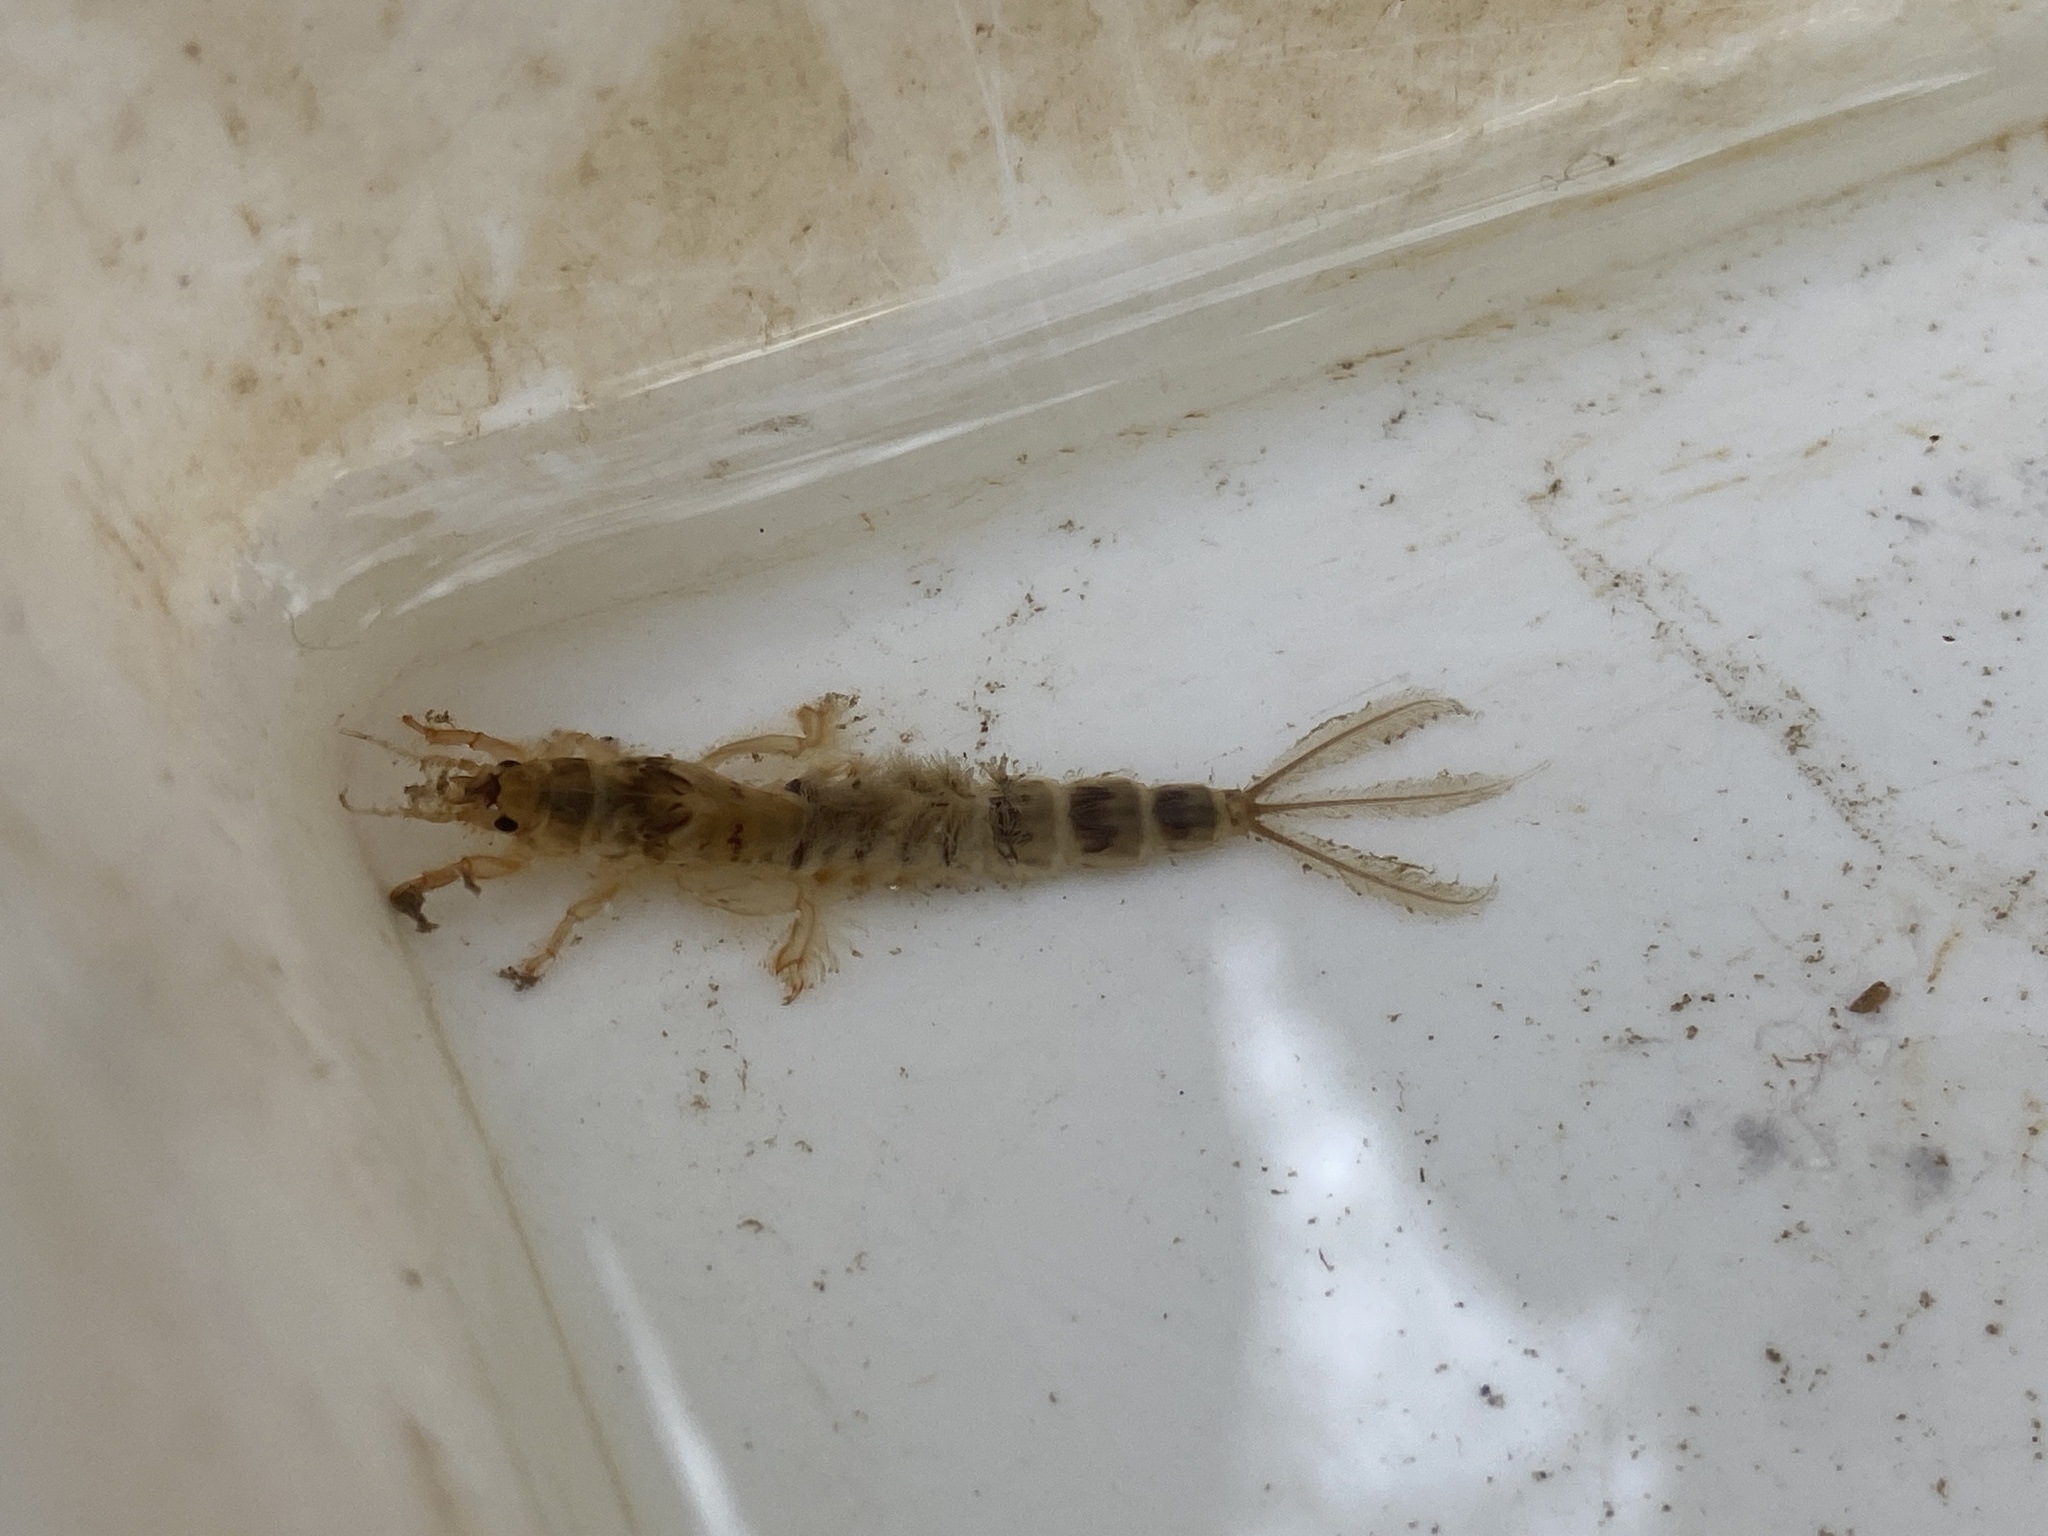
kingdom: Animalia
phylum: Arthropoda
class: Insecta
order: Ephemeroptera
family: Ephemeridae
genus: Ephemera
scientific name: Ephemera danica
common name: Green dun
